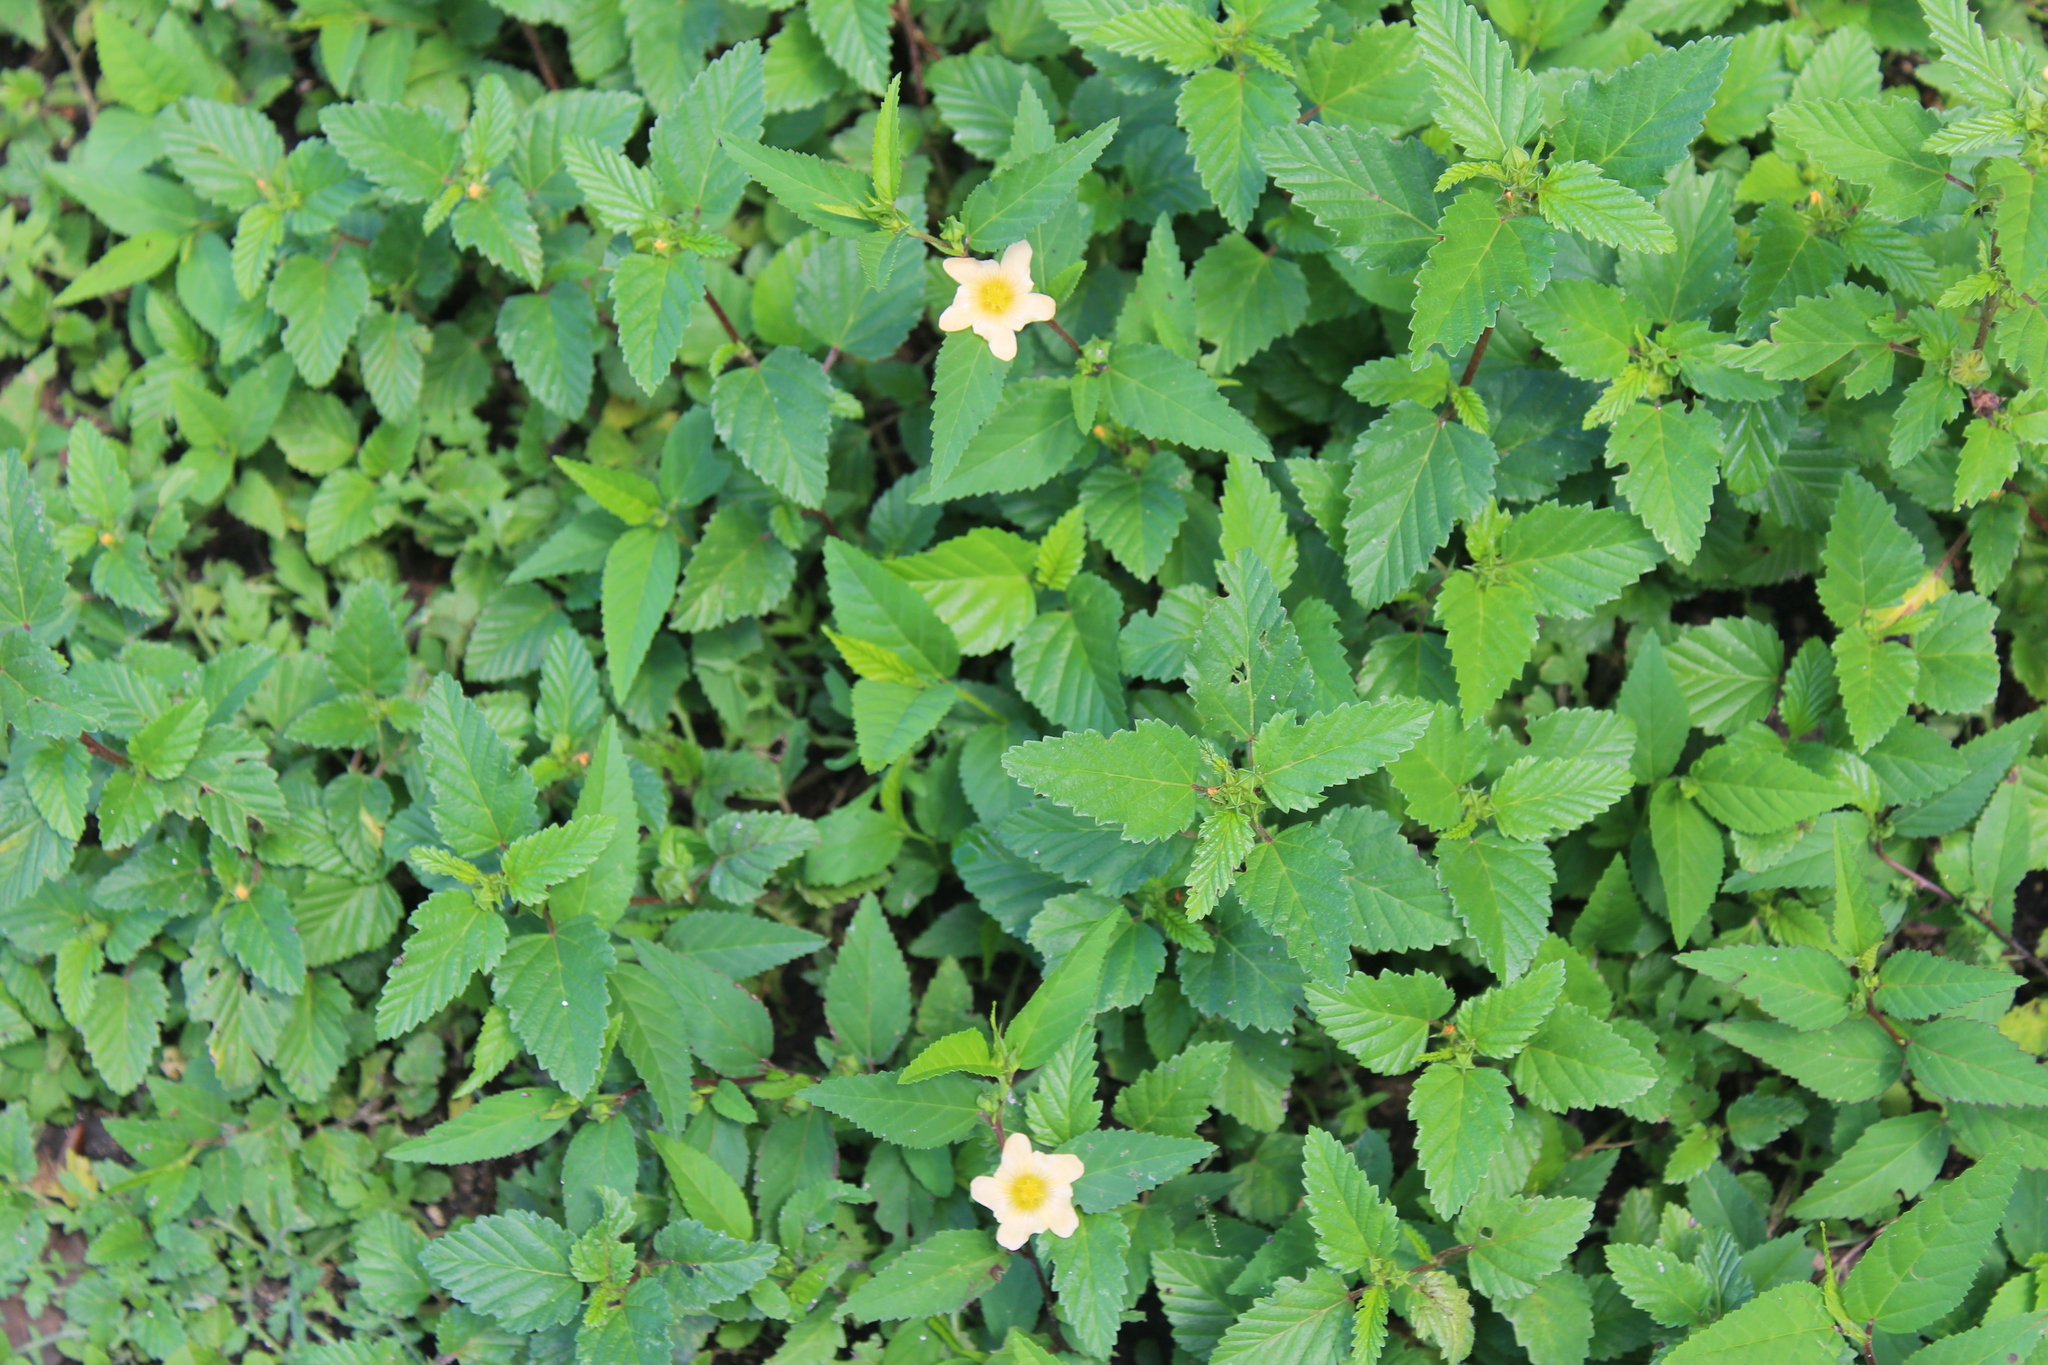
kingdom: Plantae
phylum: Tracheophyta
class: Magnoliopsida
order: Malvales
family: Malvaceae
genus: Sida
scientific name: Sida rhombifolia
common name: Queensland-hemp
